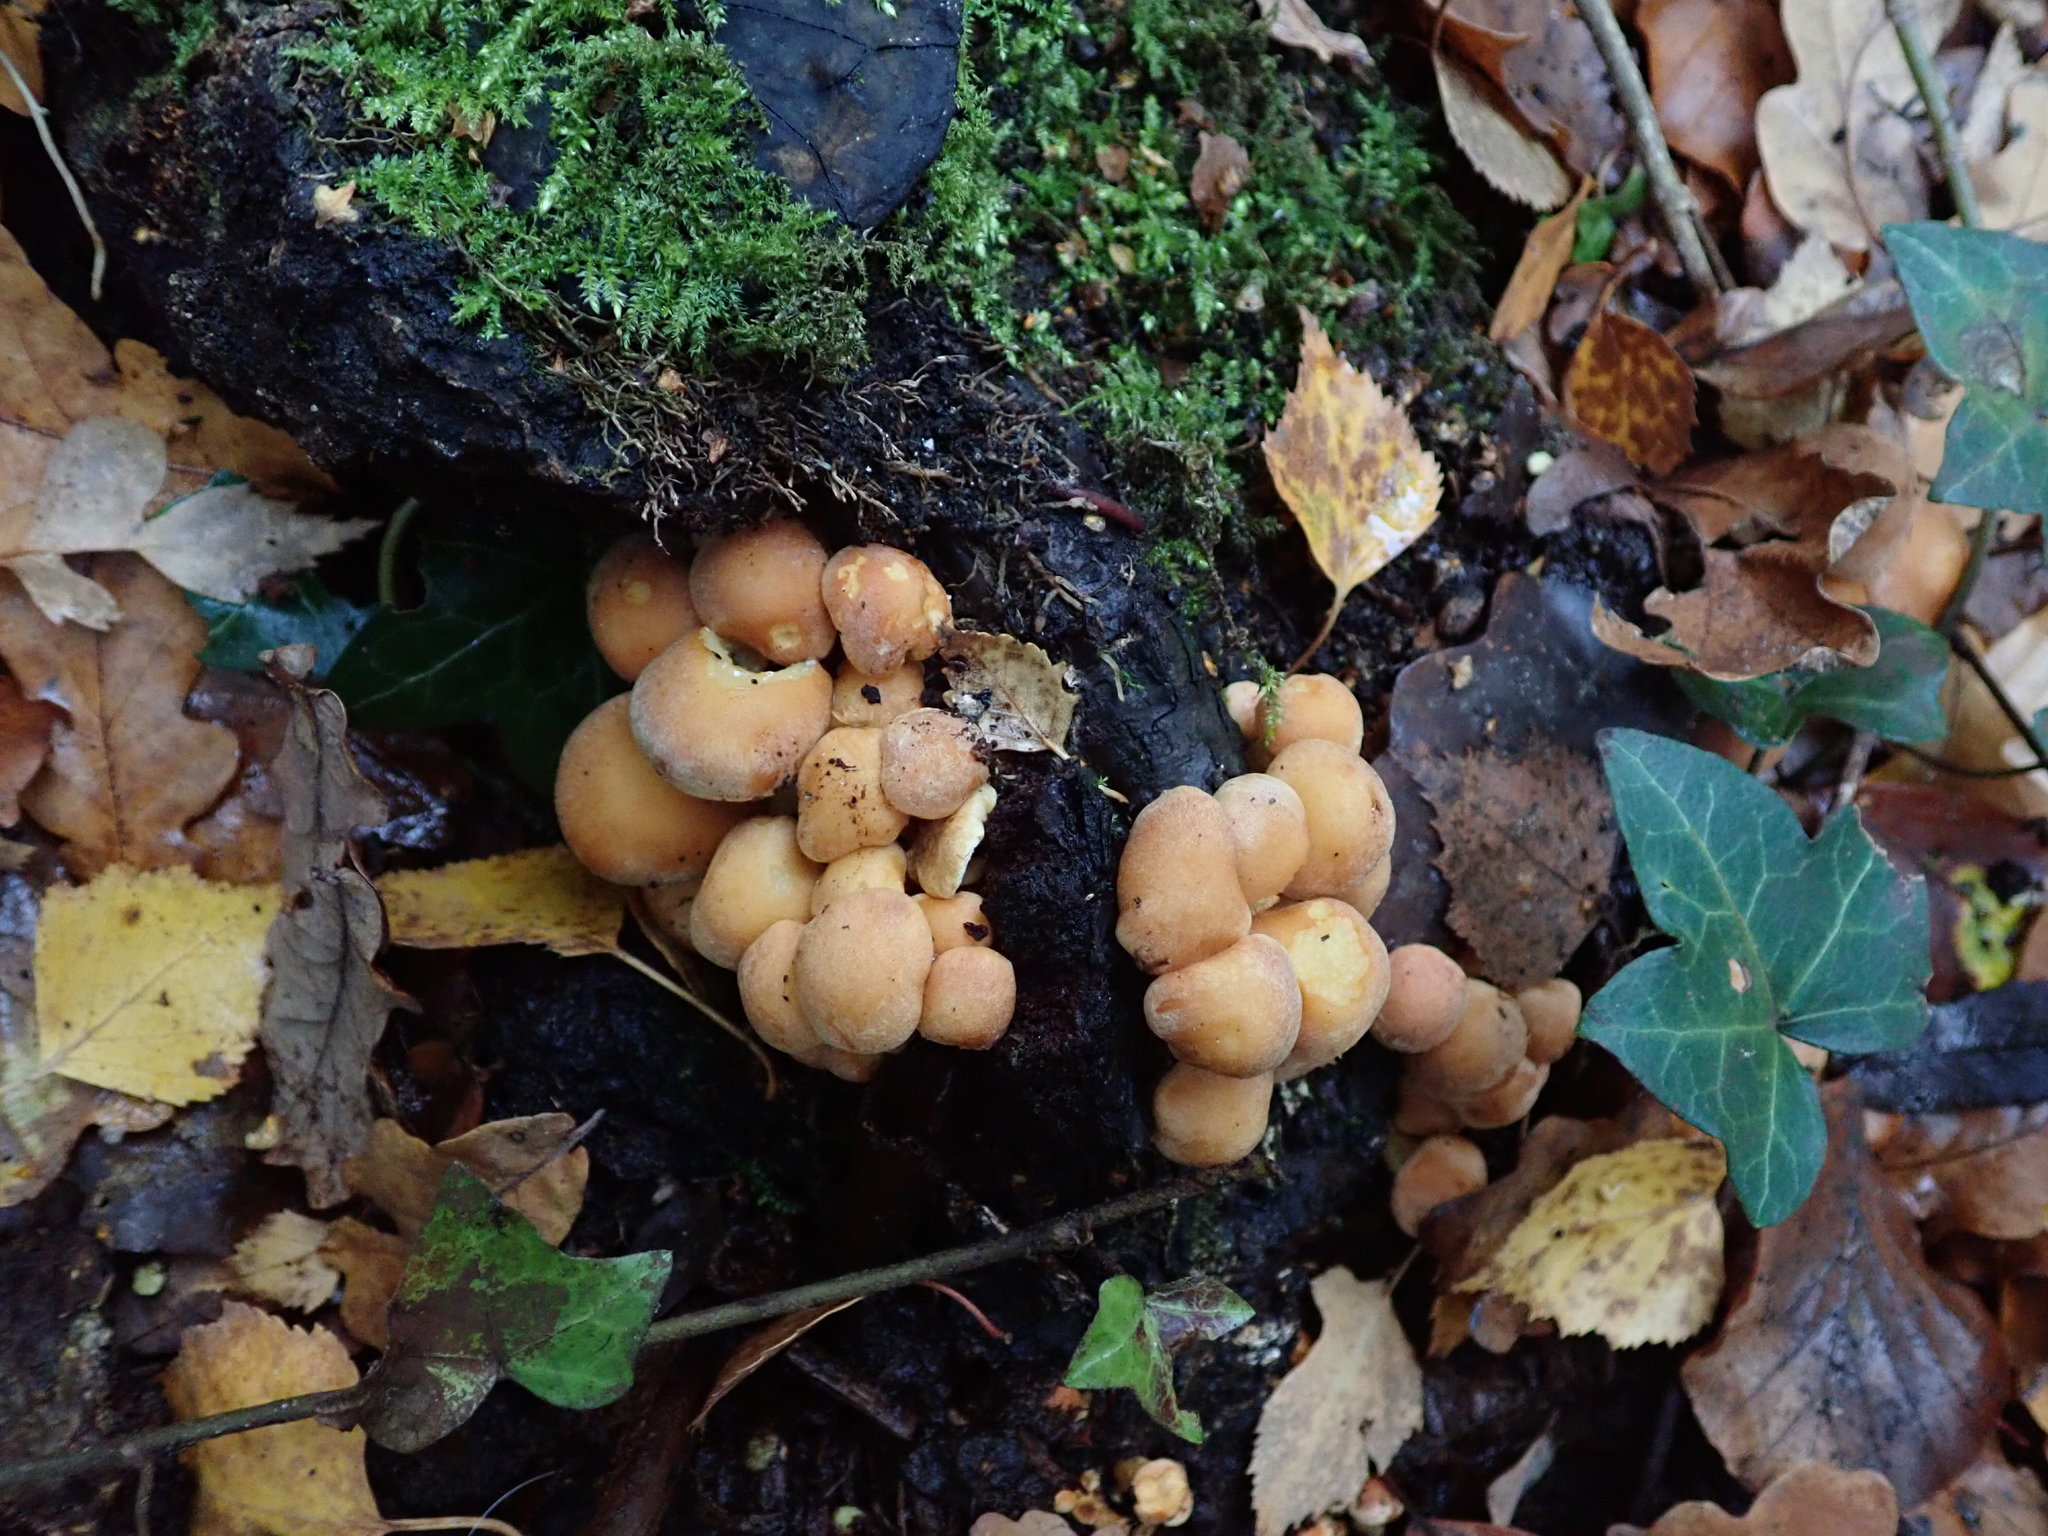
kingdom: Fungi
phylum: Basidiomycota
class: Agaricomycetes
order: Agaricales
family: Strophariaceae
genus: Hypholoma
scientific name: Hypholoma fasciculare
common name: Sulphur tuft
